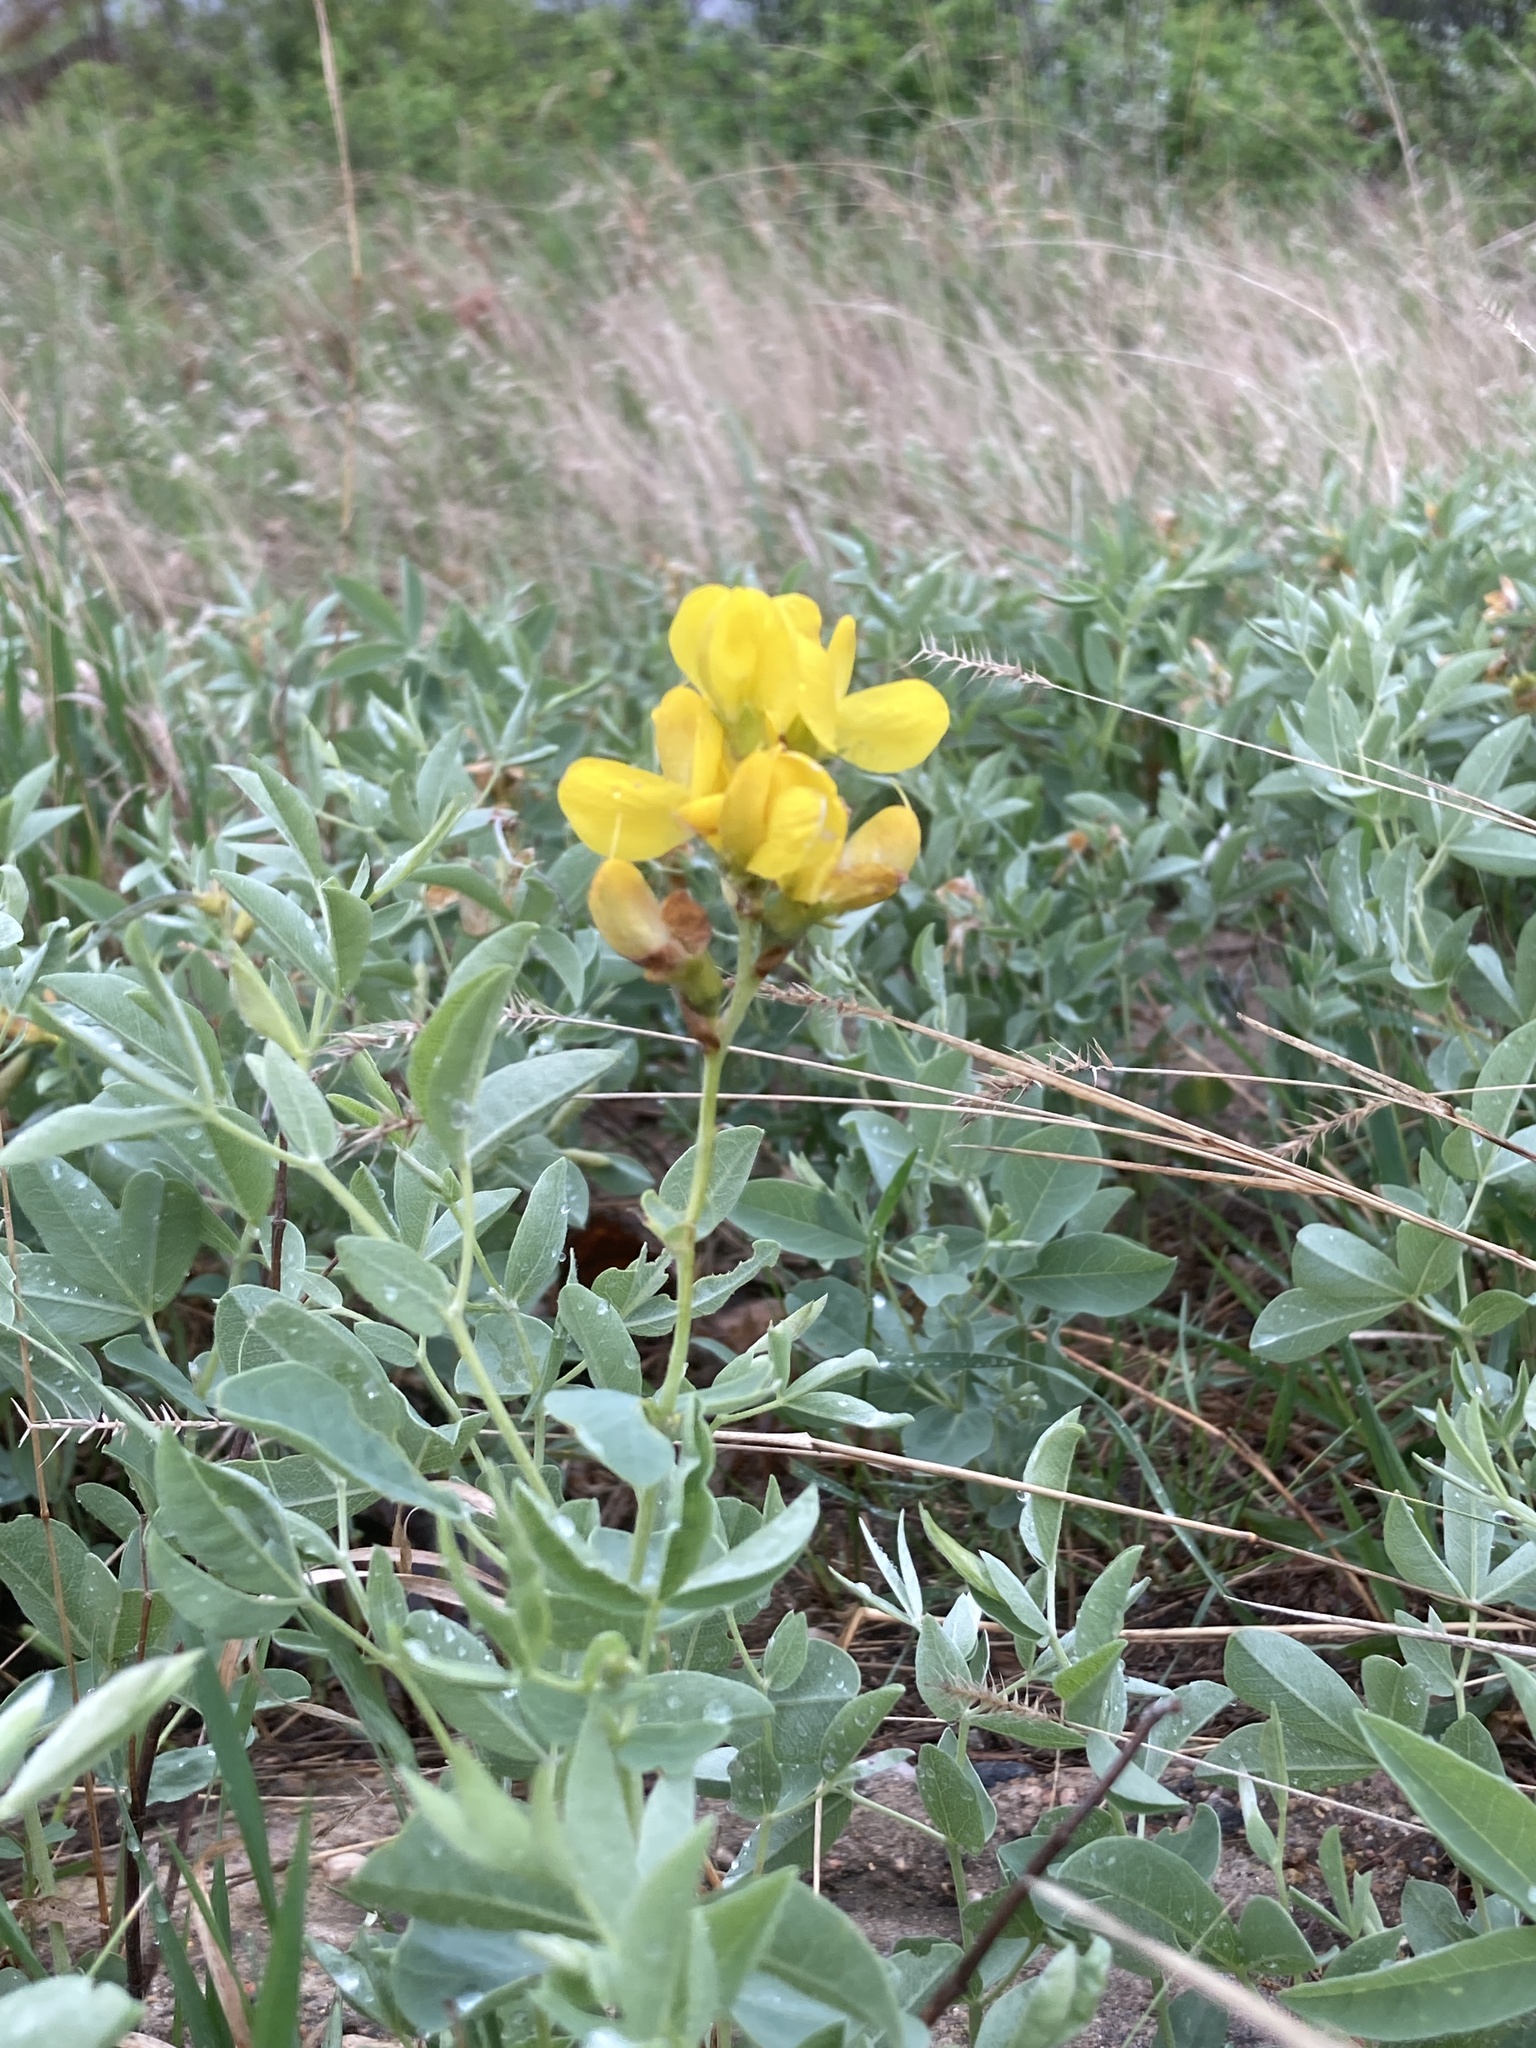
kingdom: Plantae
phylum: Tracheophyta
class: Magnoliopsida
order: Fabales
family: Fabaceae
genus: Thermopsis
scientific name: Thermopsis rhombifolia
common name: Circle-pod-pea
